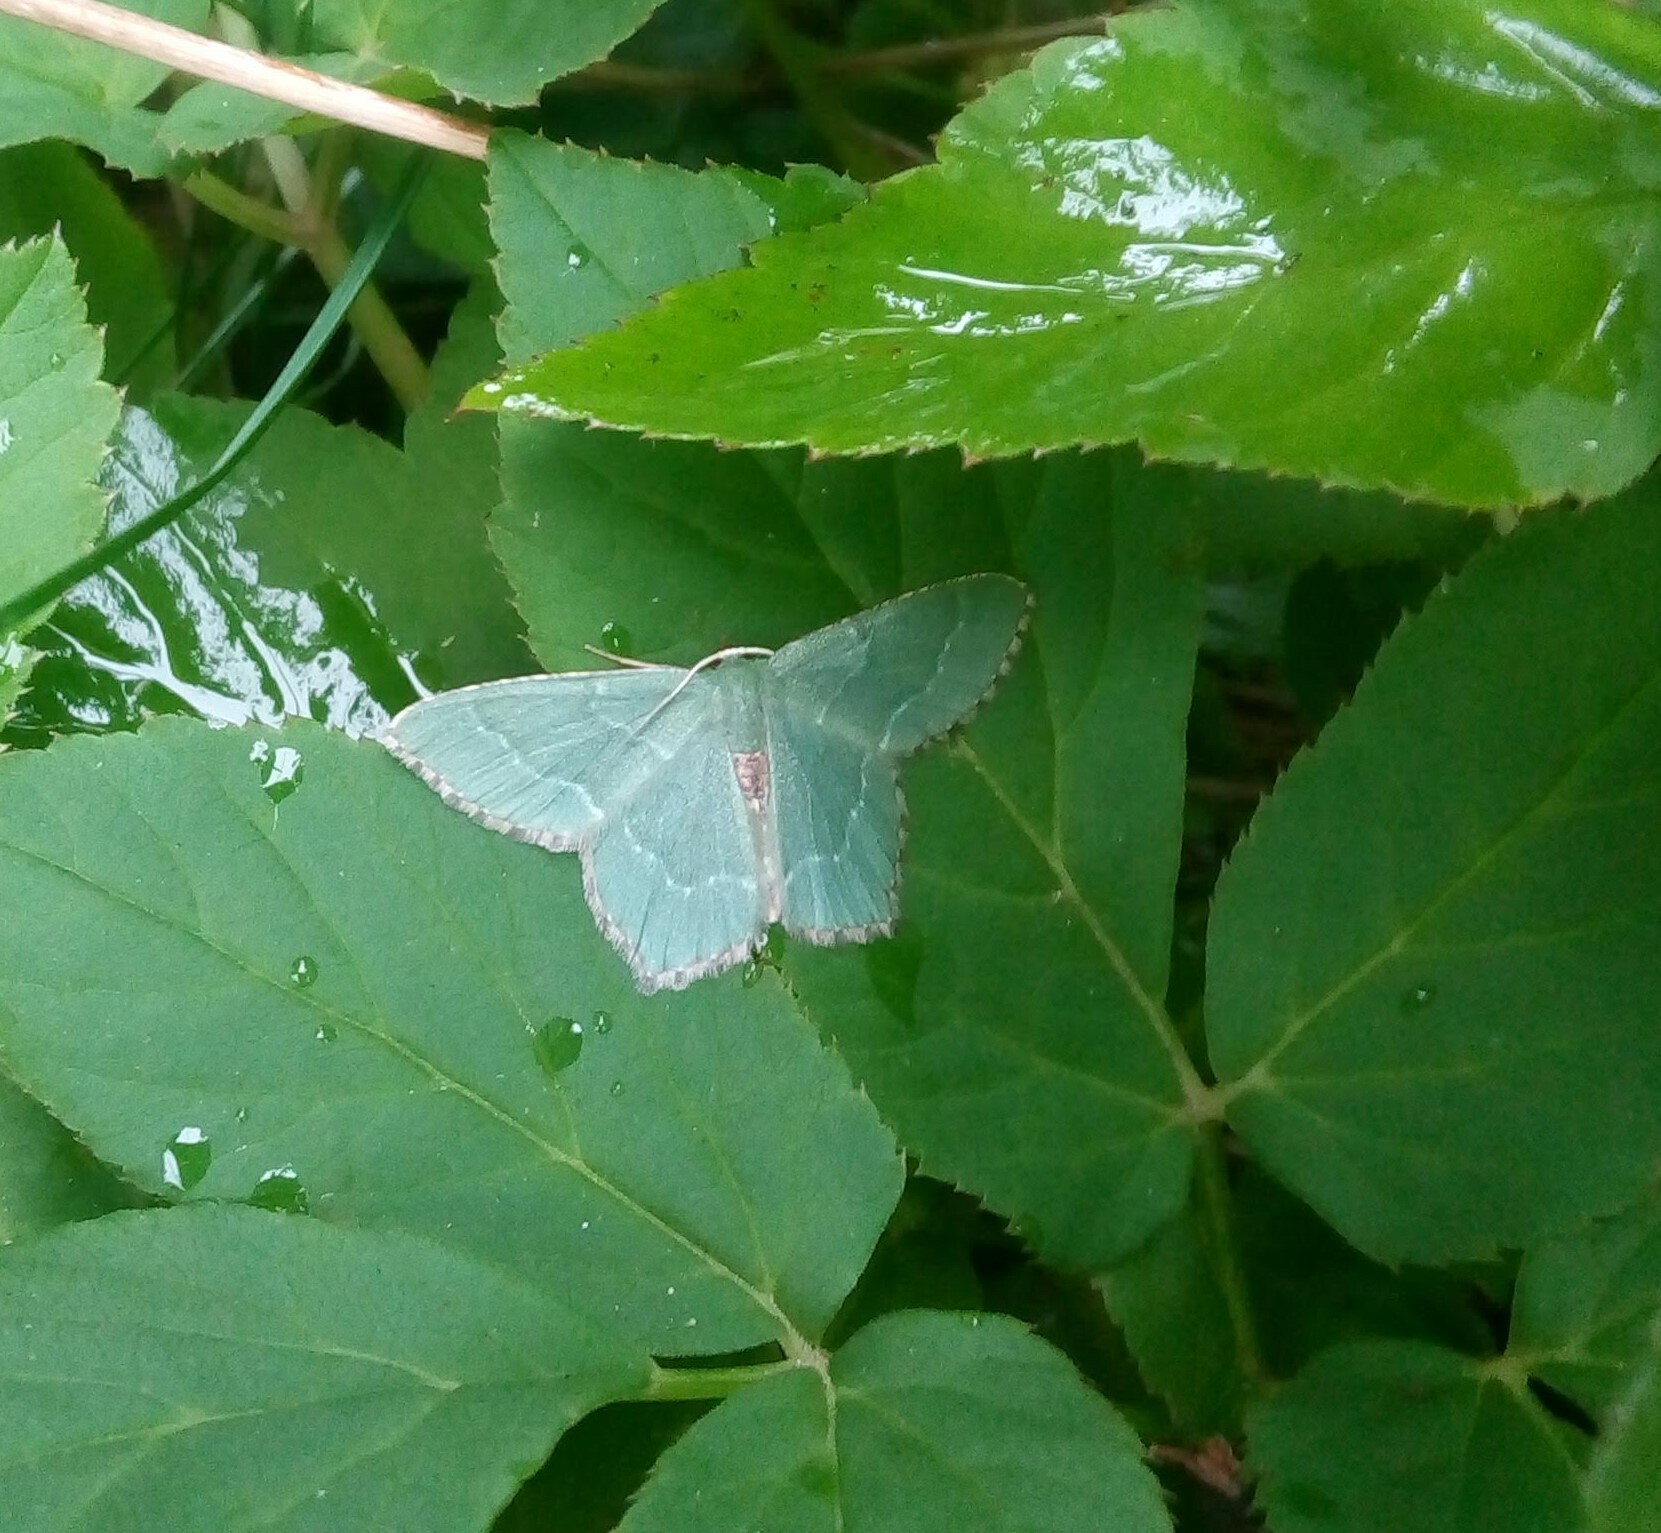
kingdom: Animalia
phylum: Arthropoda
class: Insecta
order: Lepidoptera
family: Geometridae
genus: Hemithea
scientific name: Hemithea aestivaria
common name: Common emerald
